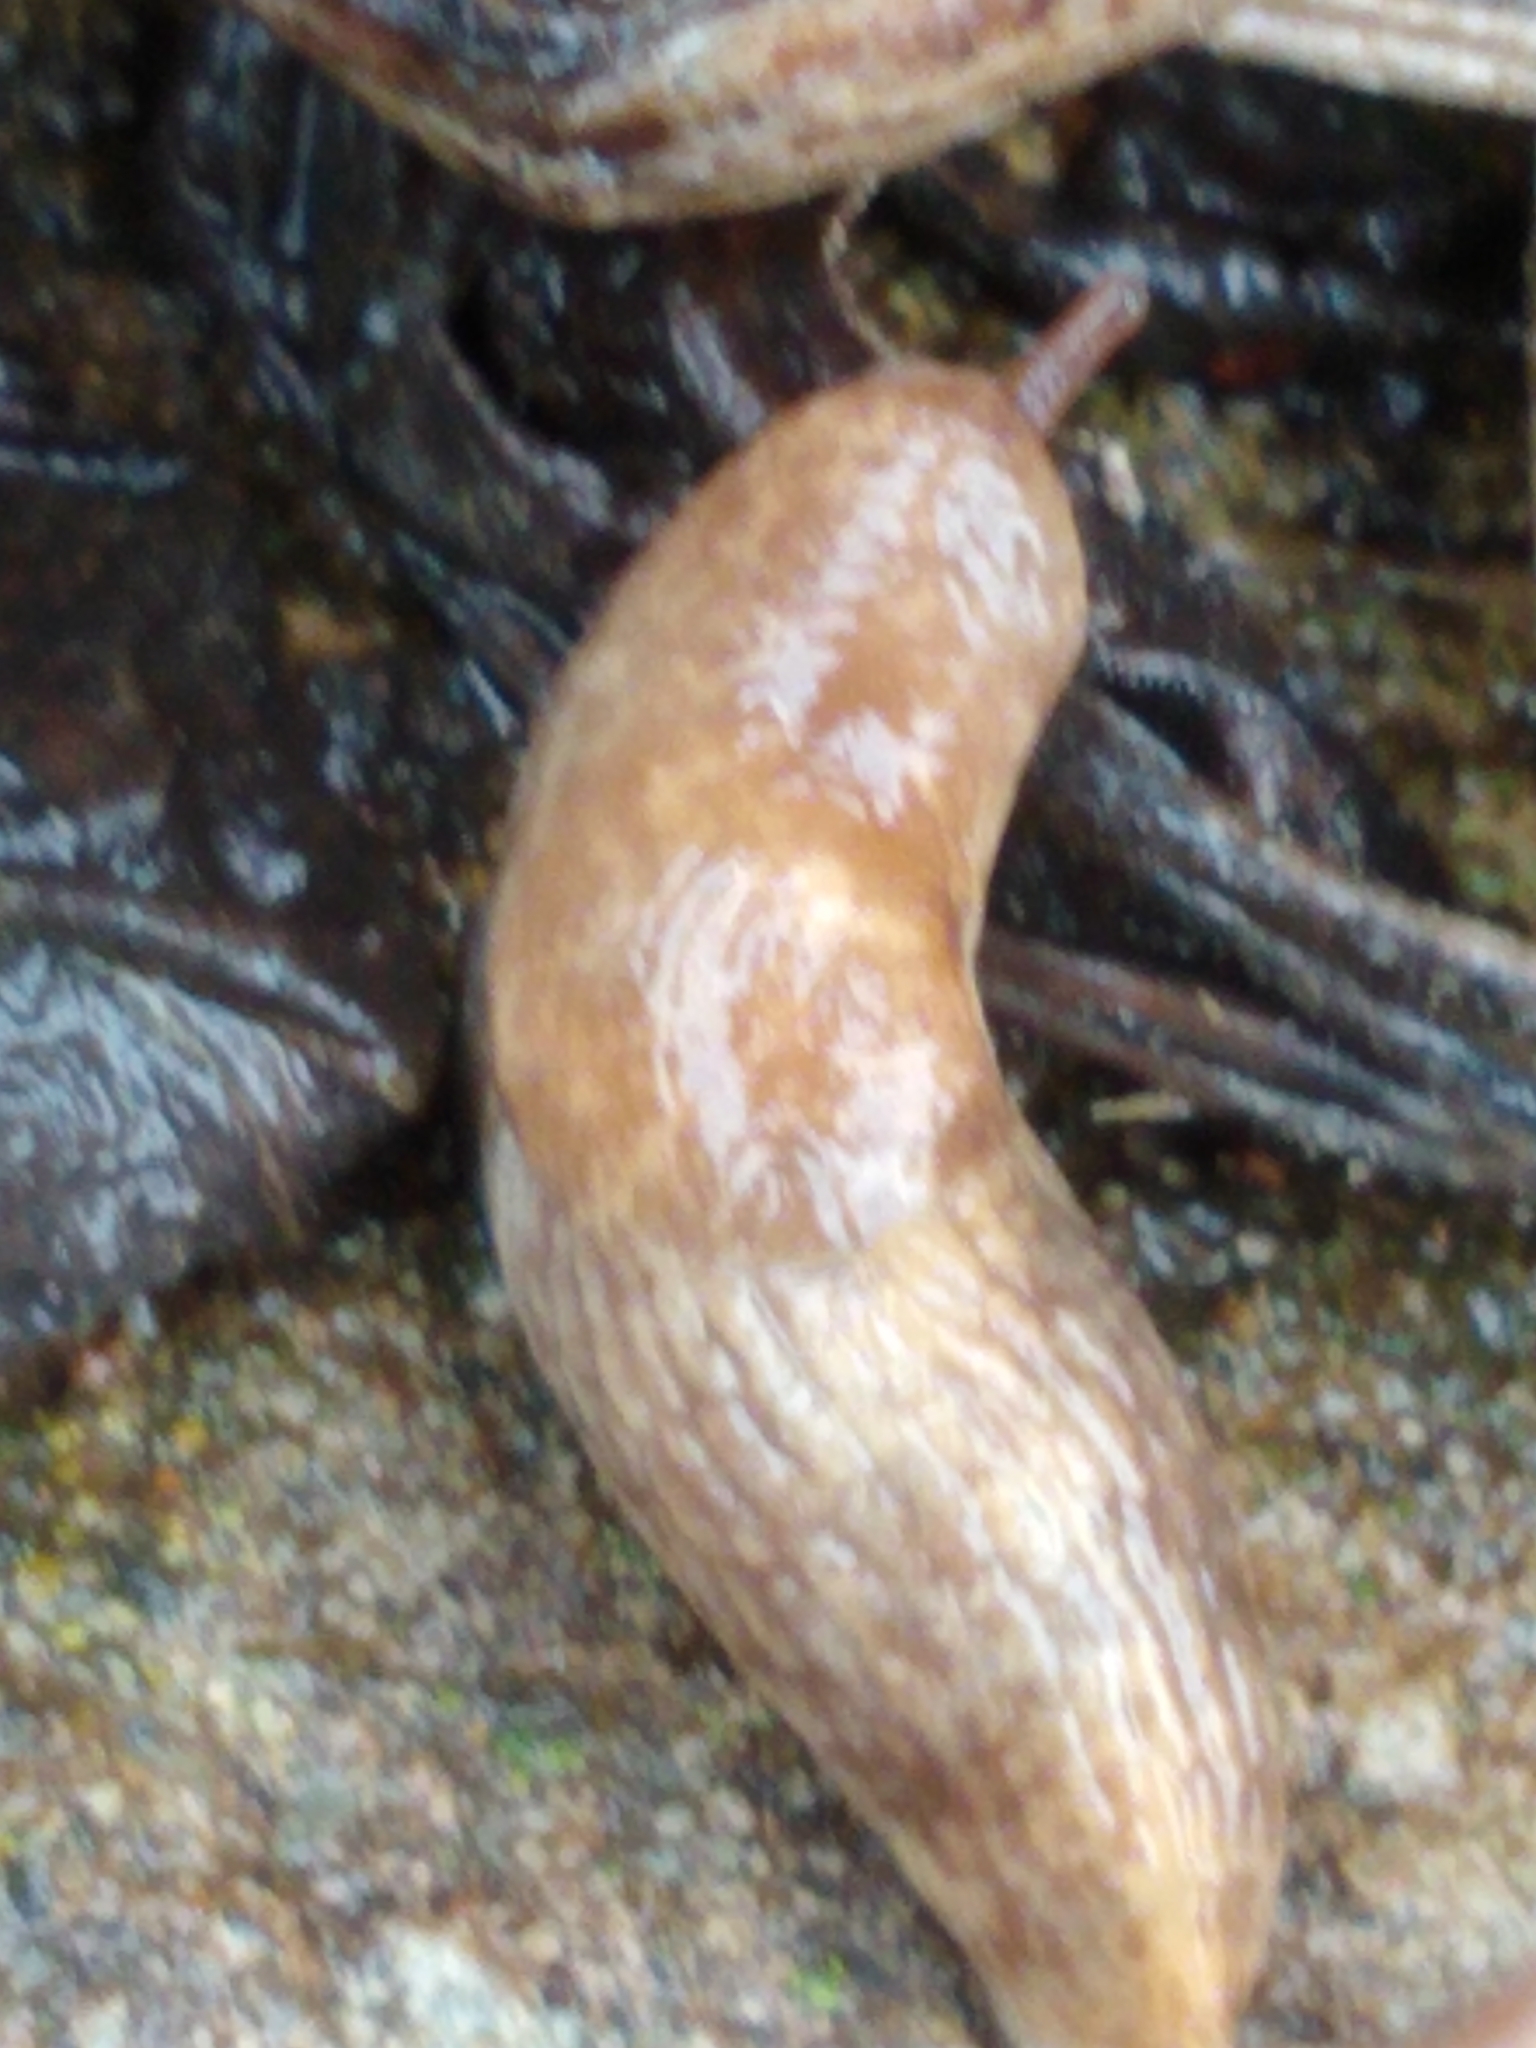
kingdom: Animalia
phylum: Mollusca
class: Gastropoda
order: Stylommatophora
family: Agriolimacidae
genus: Deroceras
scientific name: Deroceras reticulatum
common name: Gray field slug
